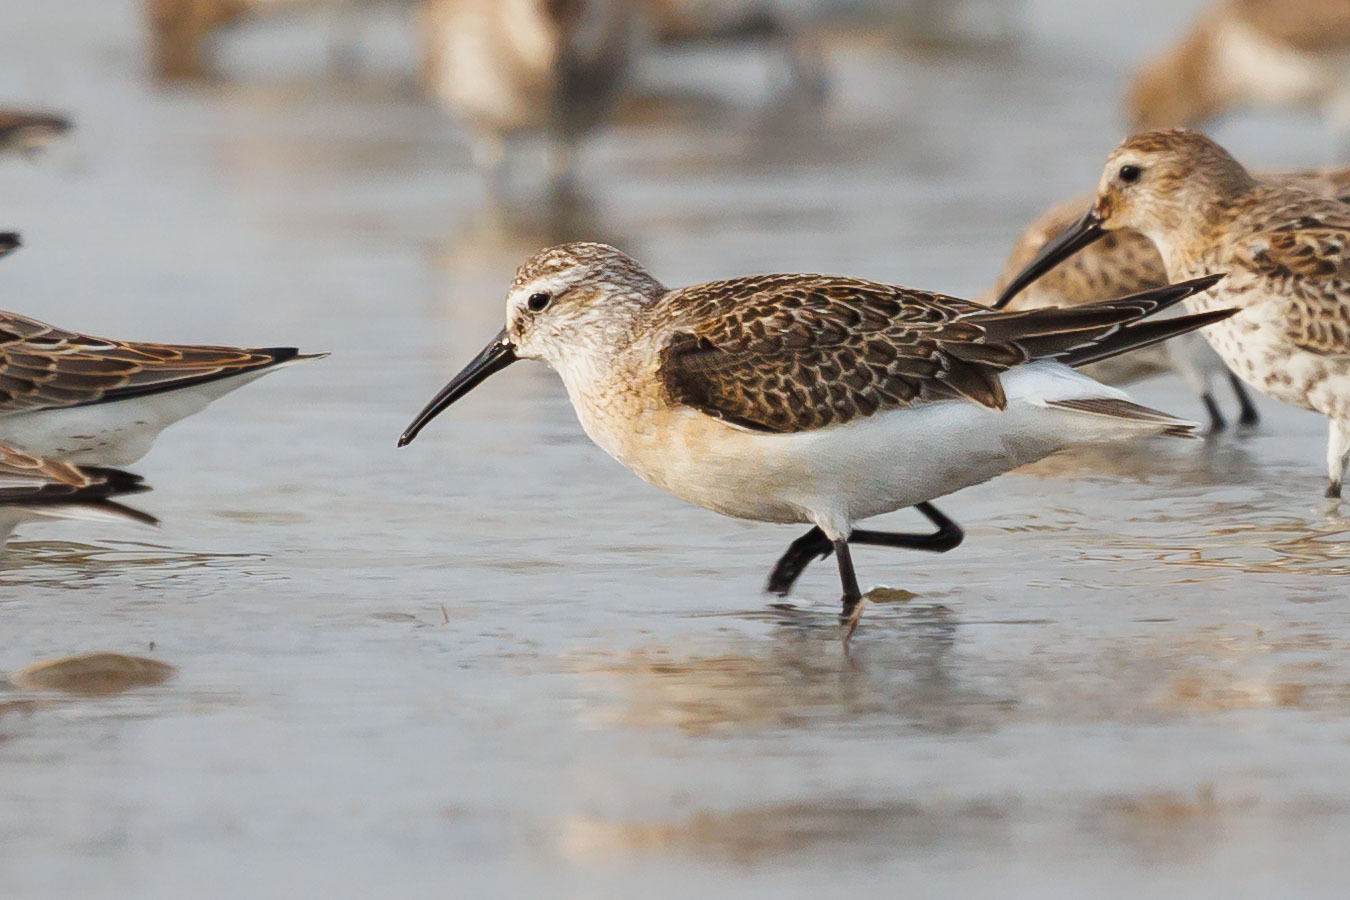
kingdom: Animalia
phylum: Chordata
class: Aves
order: Charadriiformes
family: Scolopacidae
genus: Calidris
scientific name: Calidris ferruginea
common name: Curlew sandpiper
